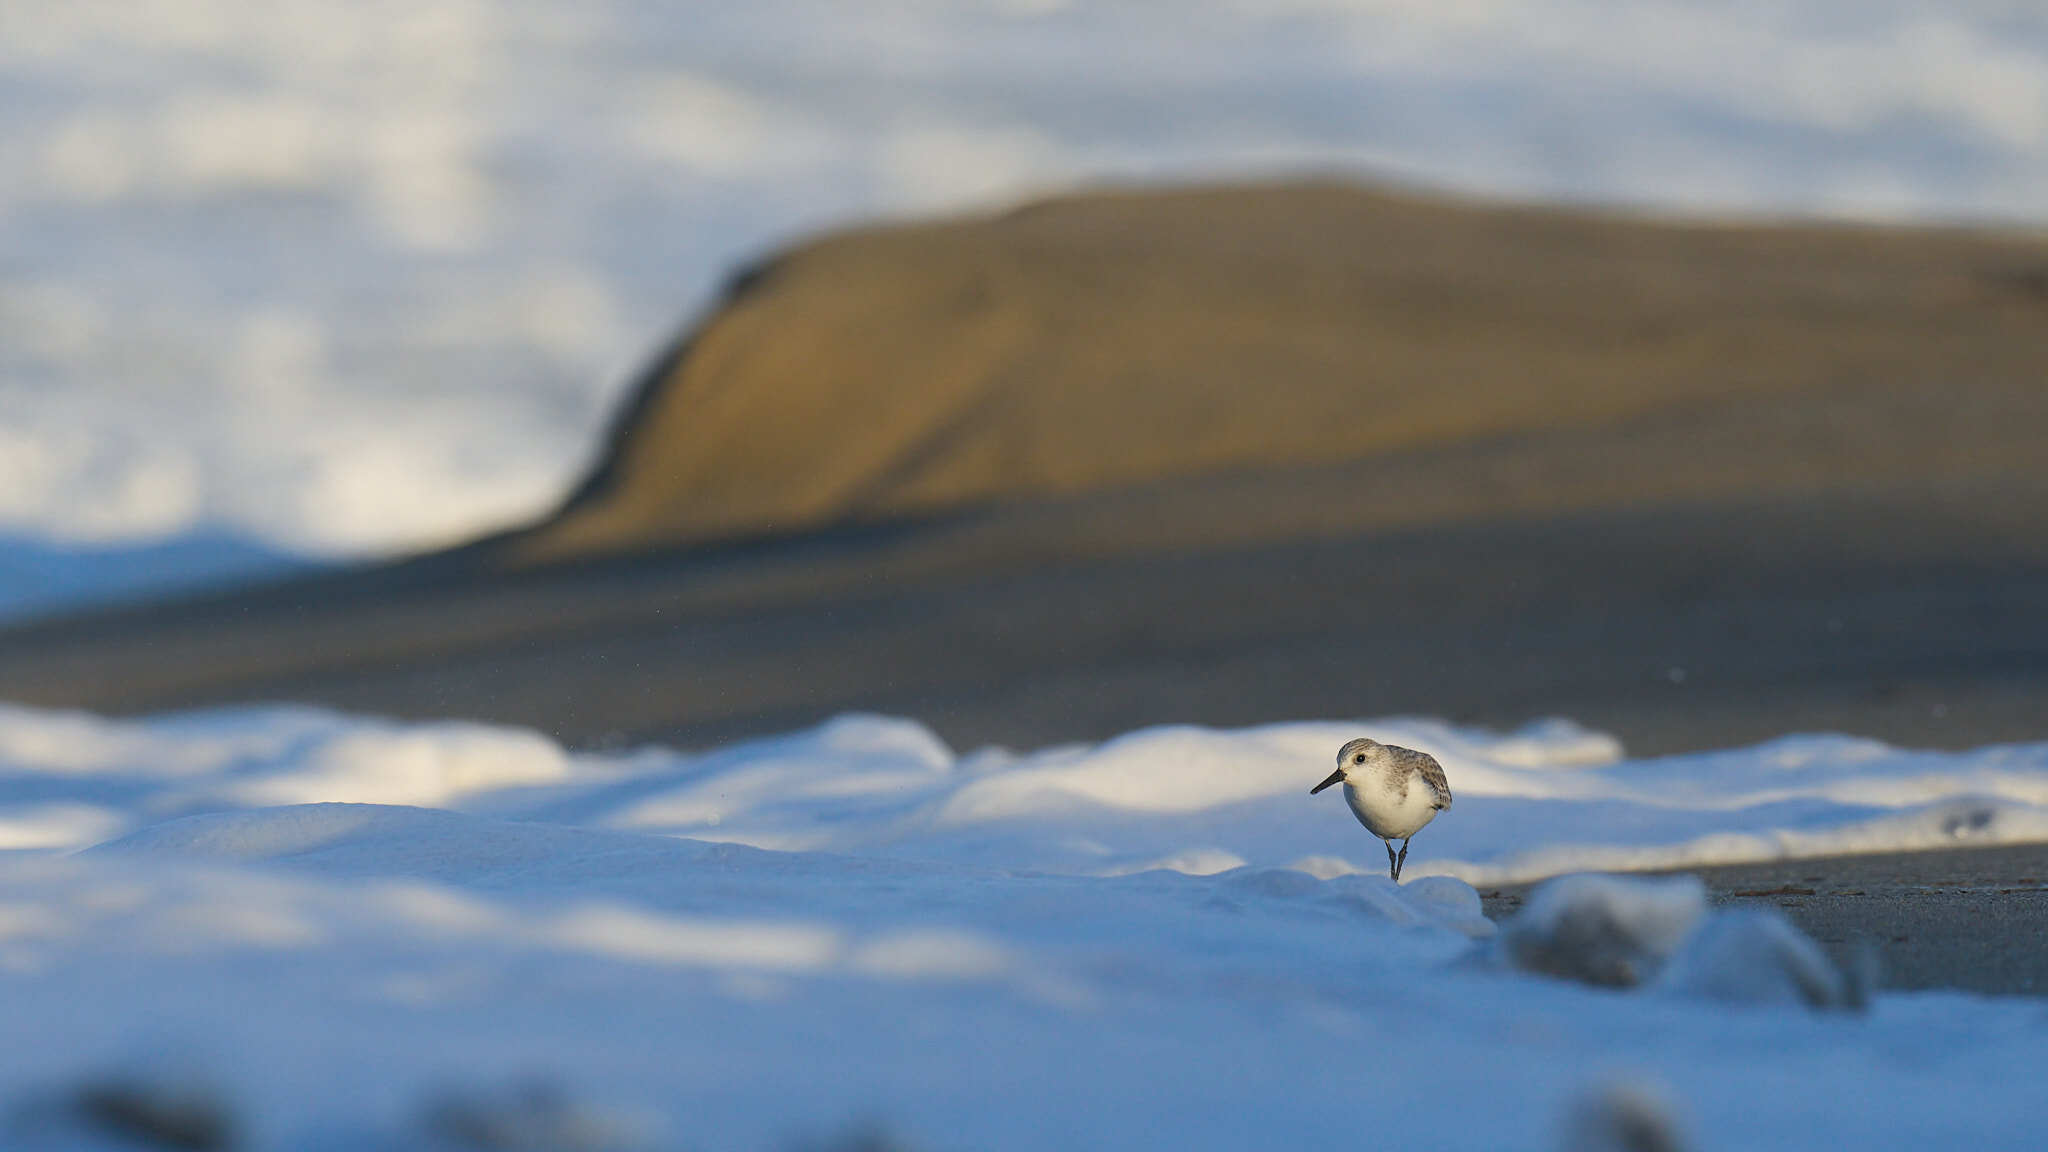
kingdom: Animalia
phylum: Chordata
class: Aves
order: Charadriiformes
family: Scolopacidae
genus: Calidris
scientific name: Calidris alba
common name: Sanderling
